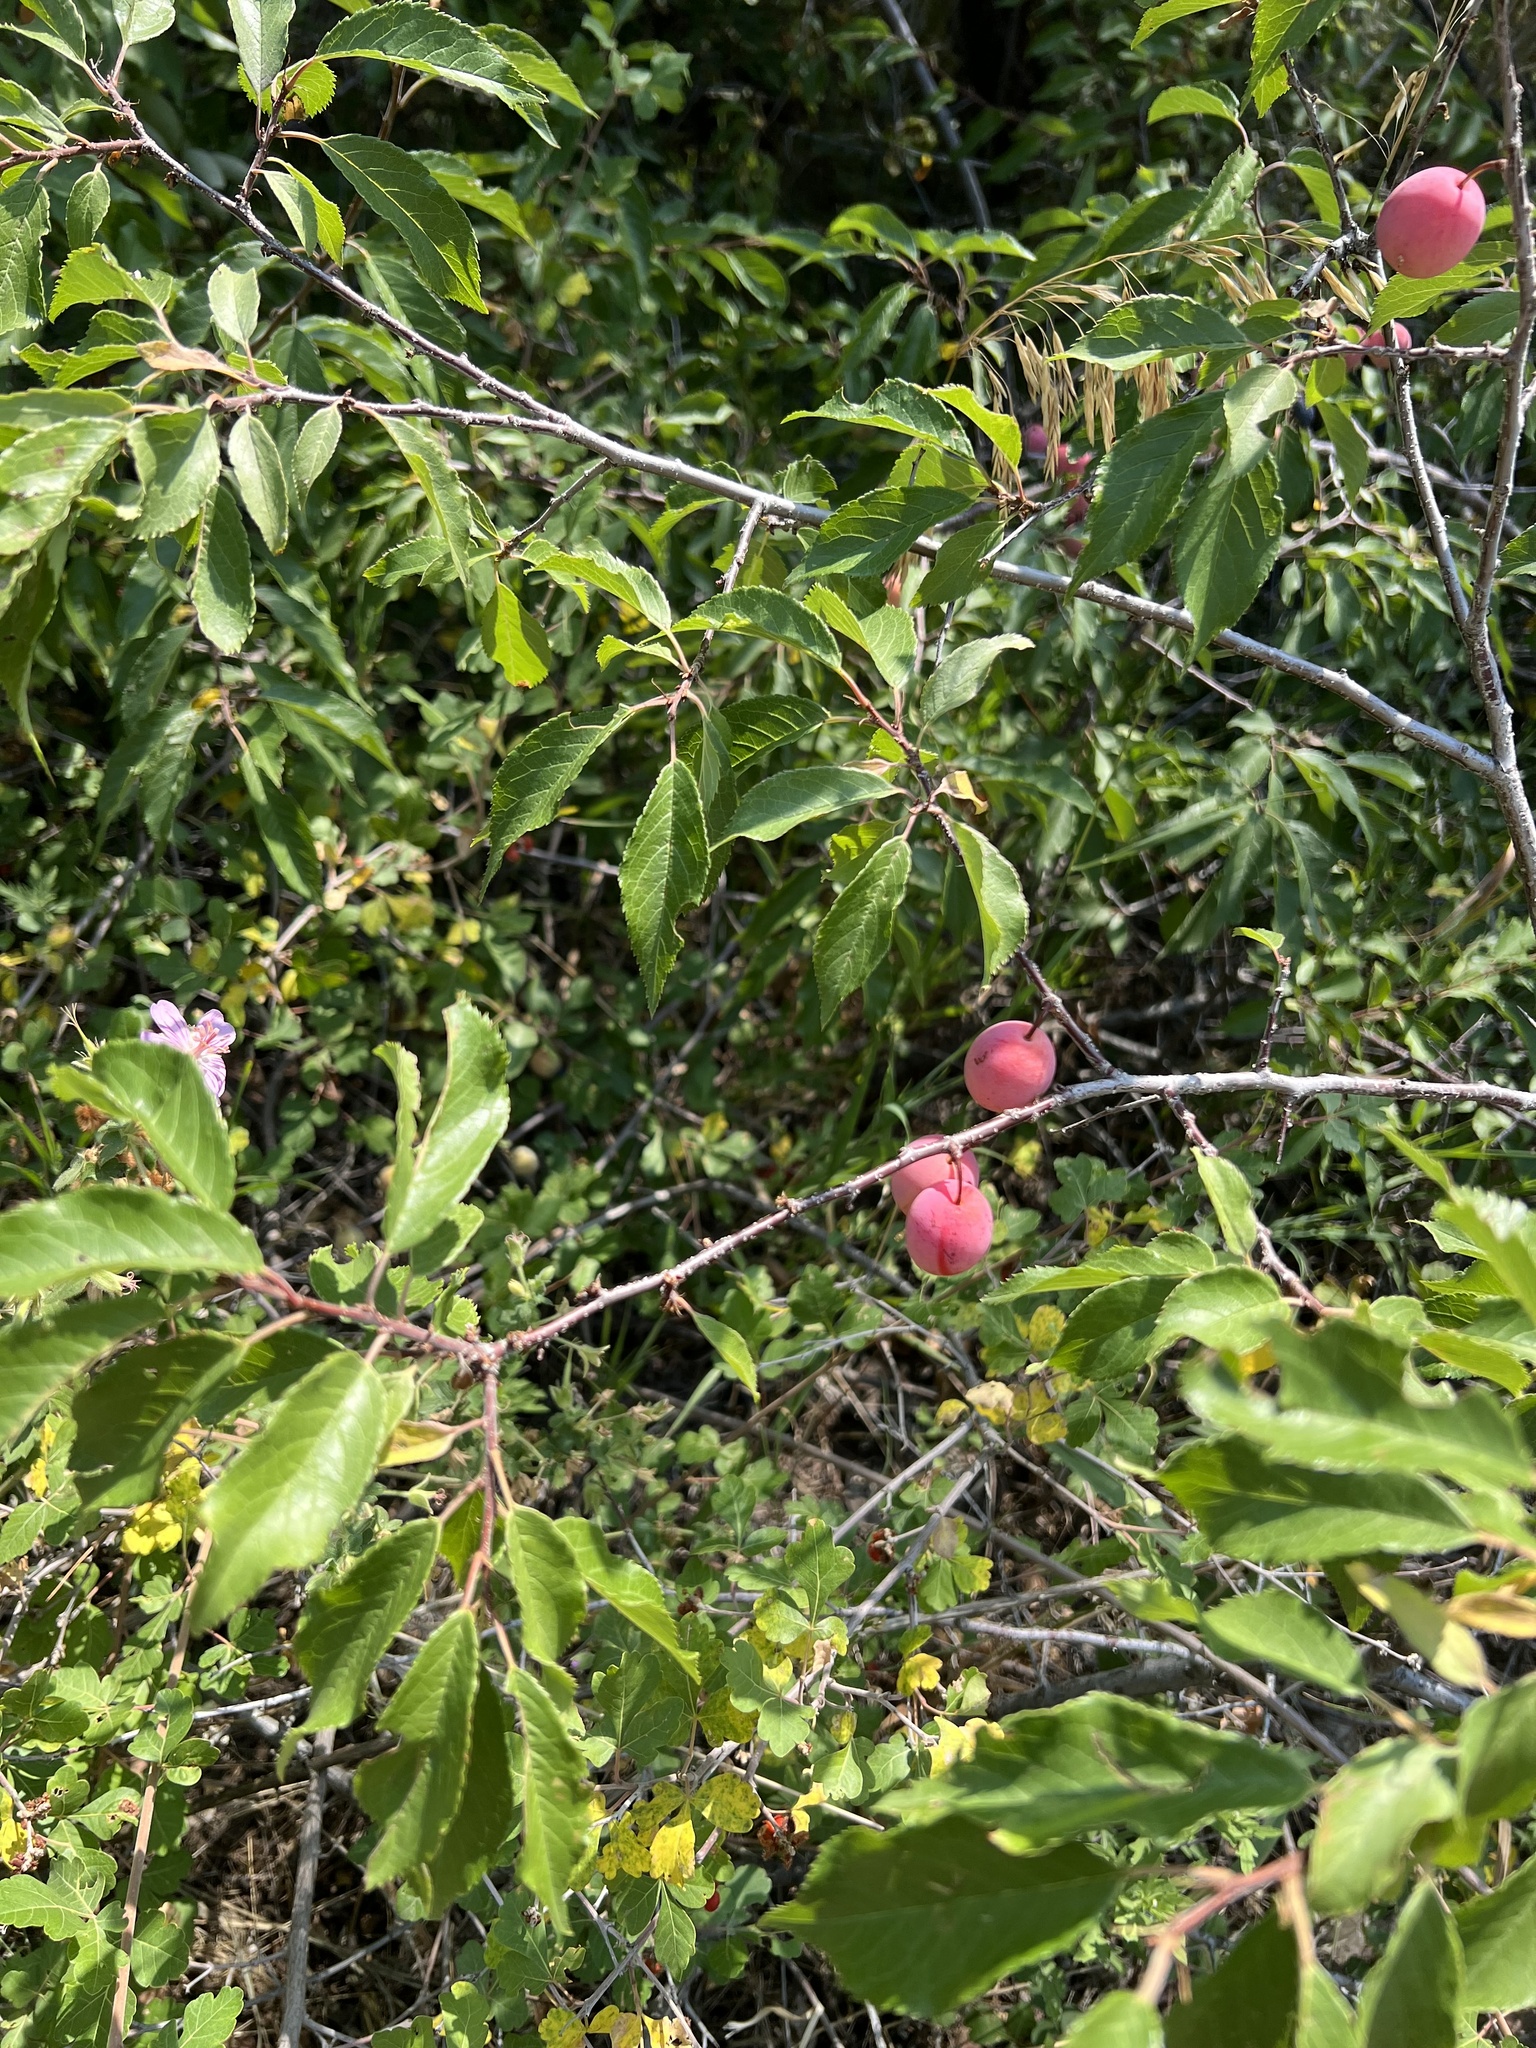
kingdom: Plantae
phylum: Tracheophyta
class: Magnoliopsida
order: Rosales
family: Rosaceae
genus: Prunus
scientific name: Prunus americana
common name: American plum
